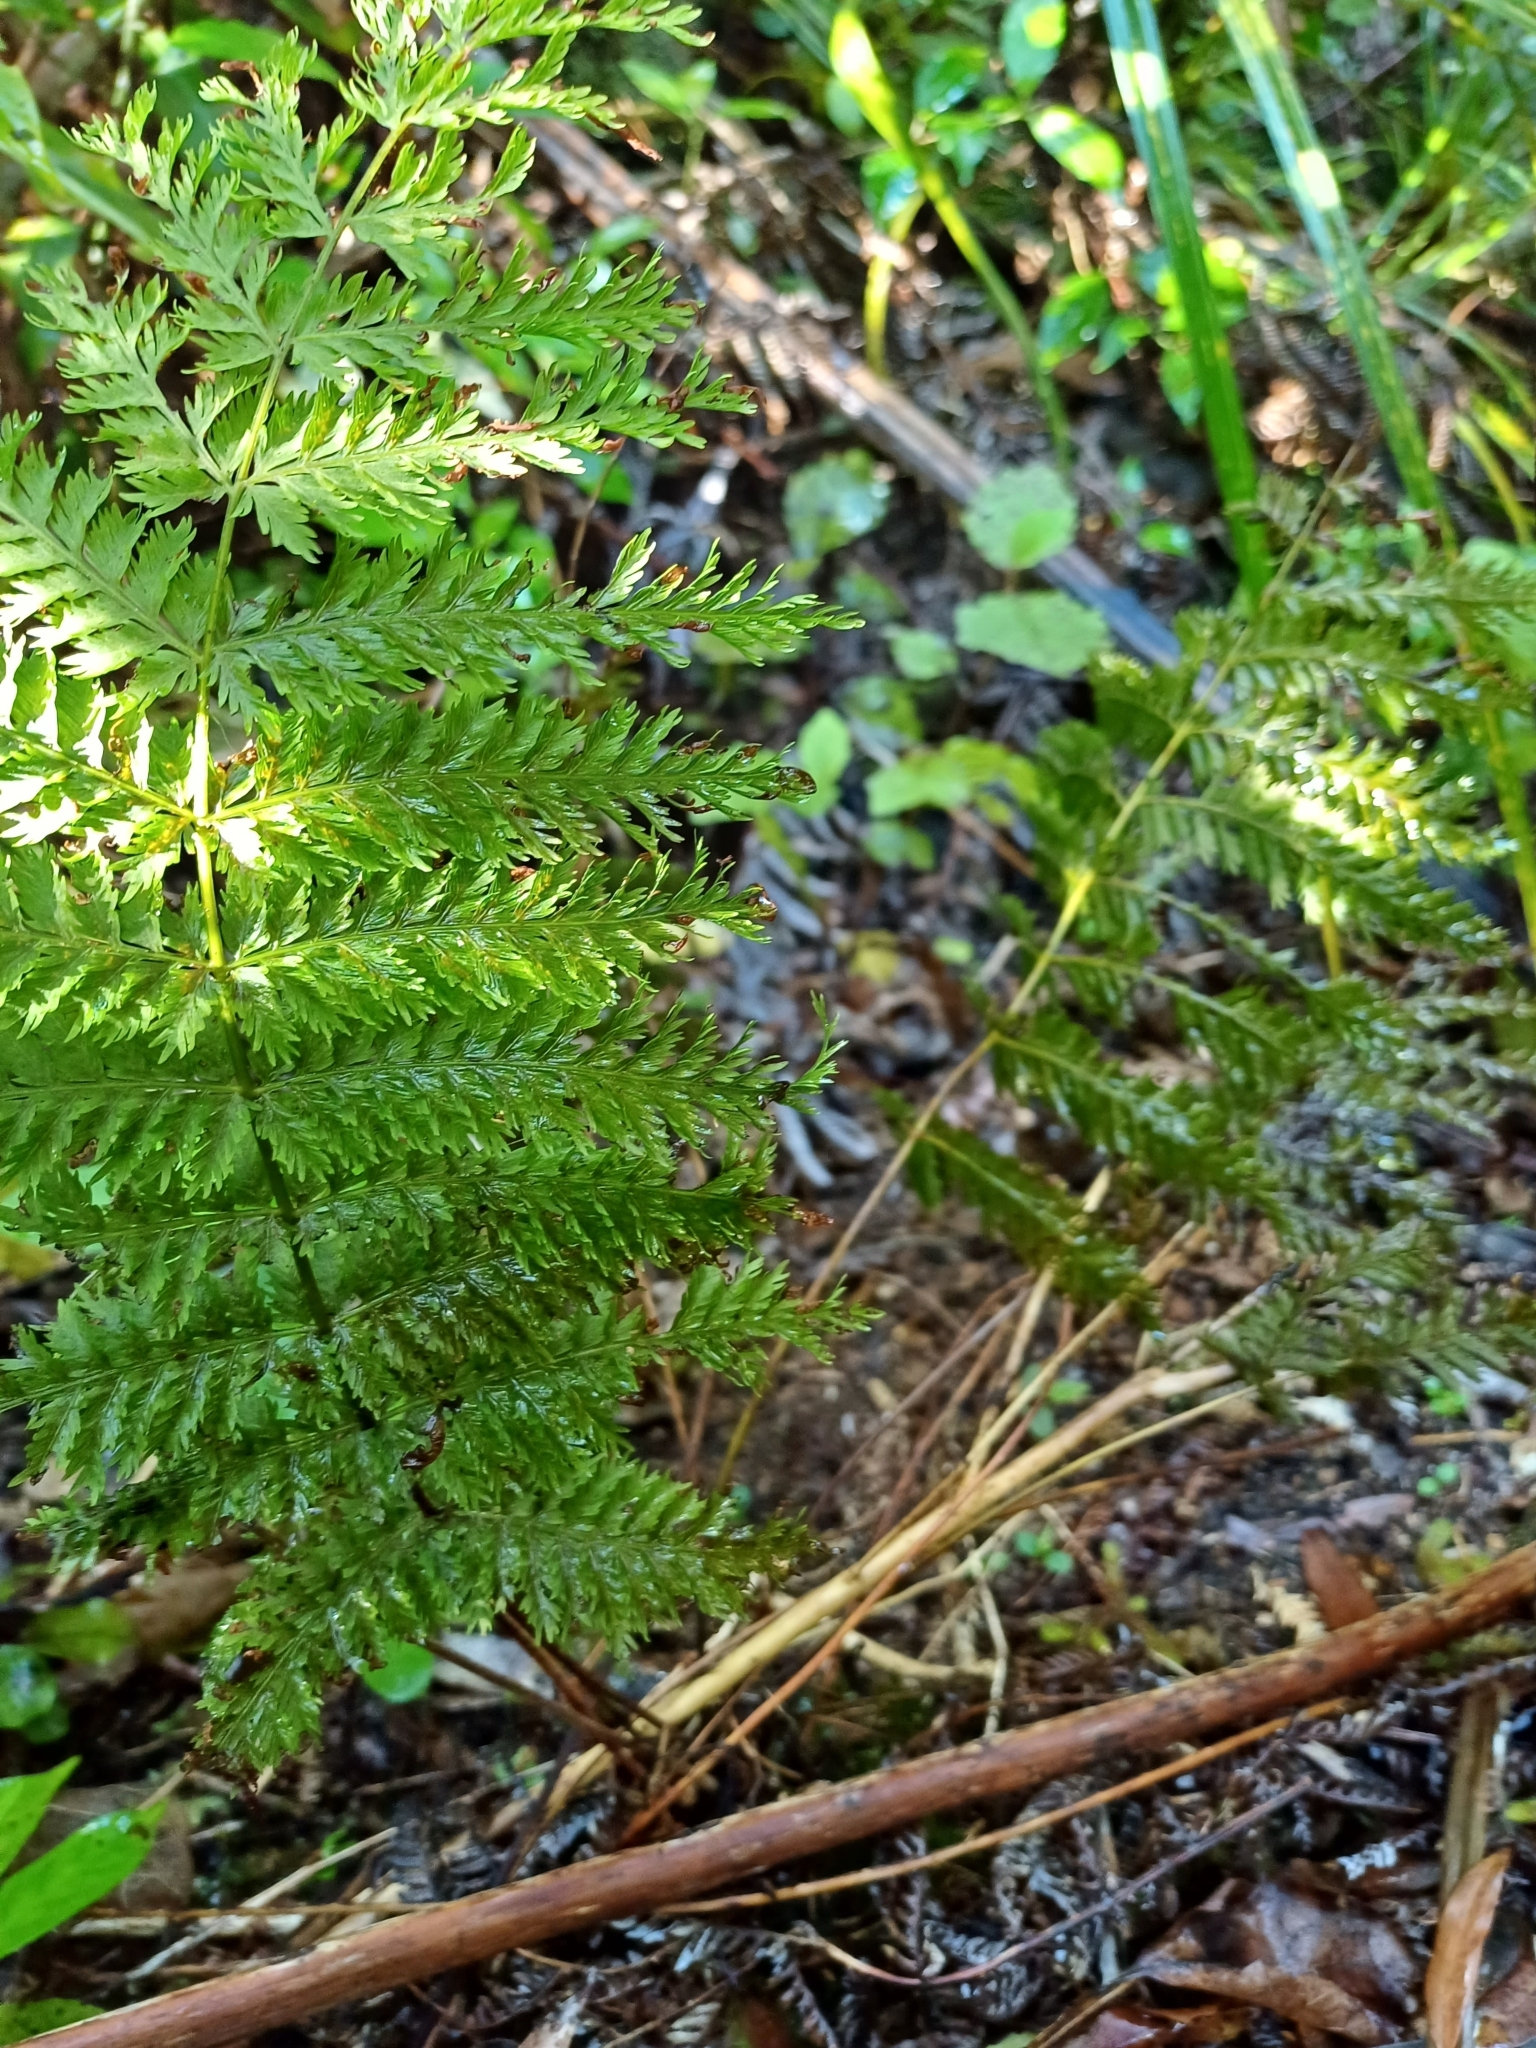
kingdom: Plantae
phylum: Tracheophyta
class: Polypodiopsida
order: Osmundales
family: Osmundaceae
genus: Leptopteris
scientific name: Leptopteris hymenophylloides
